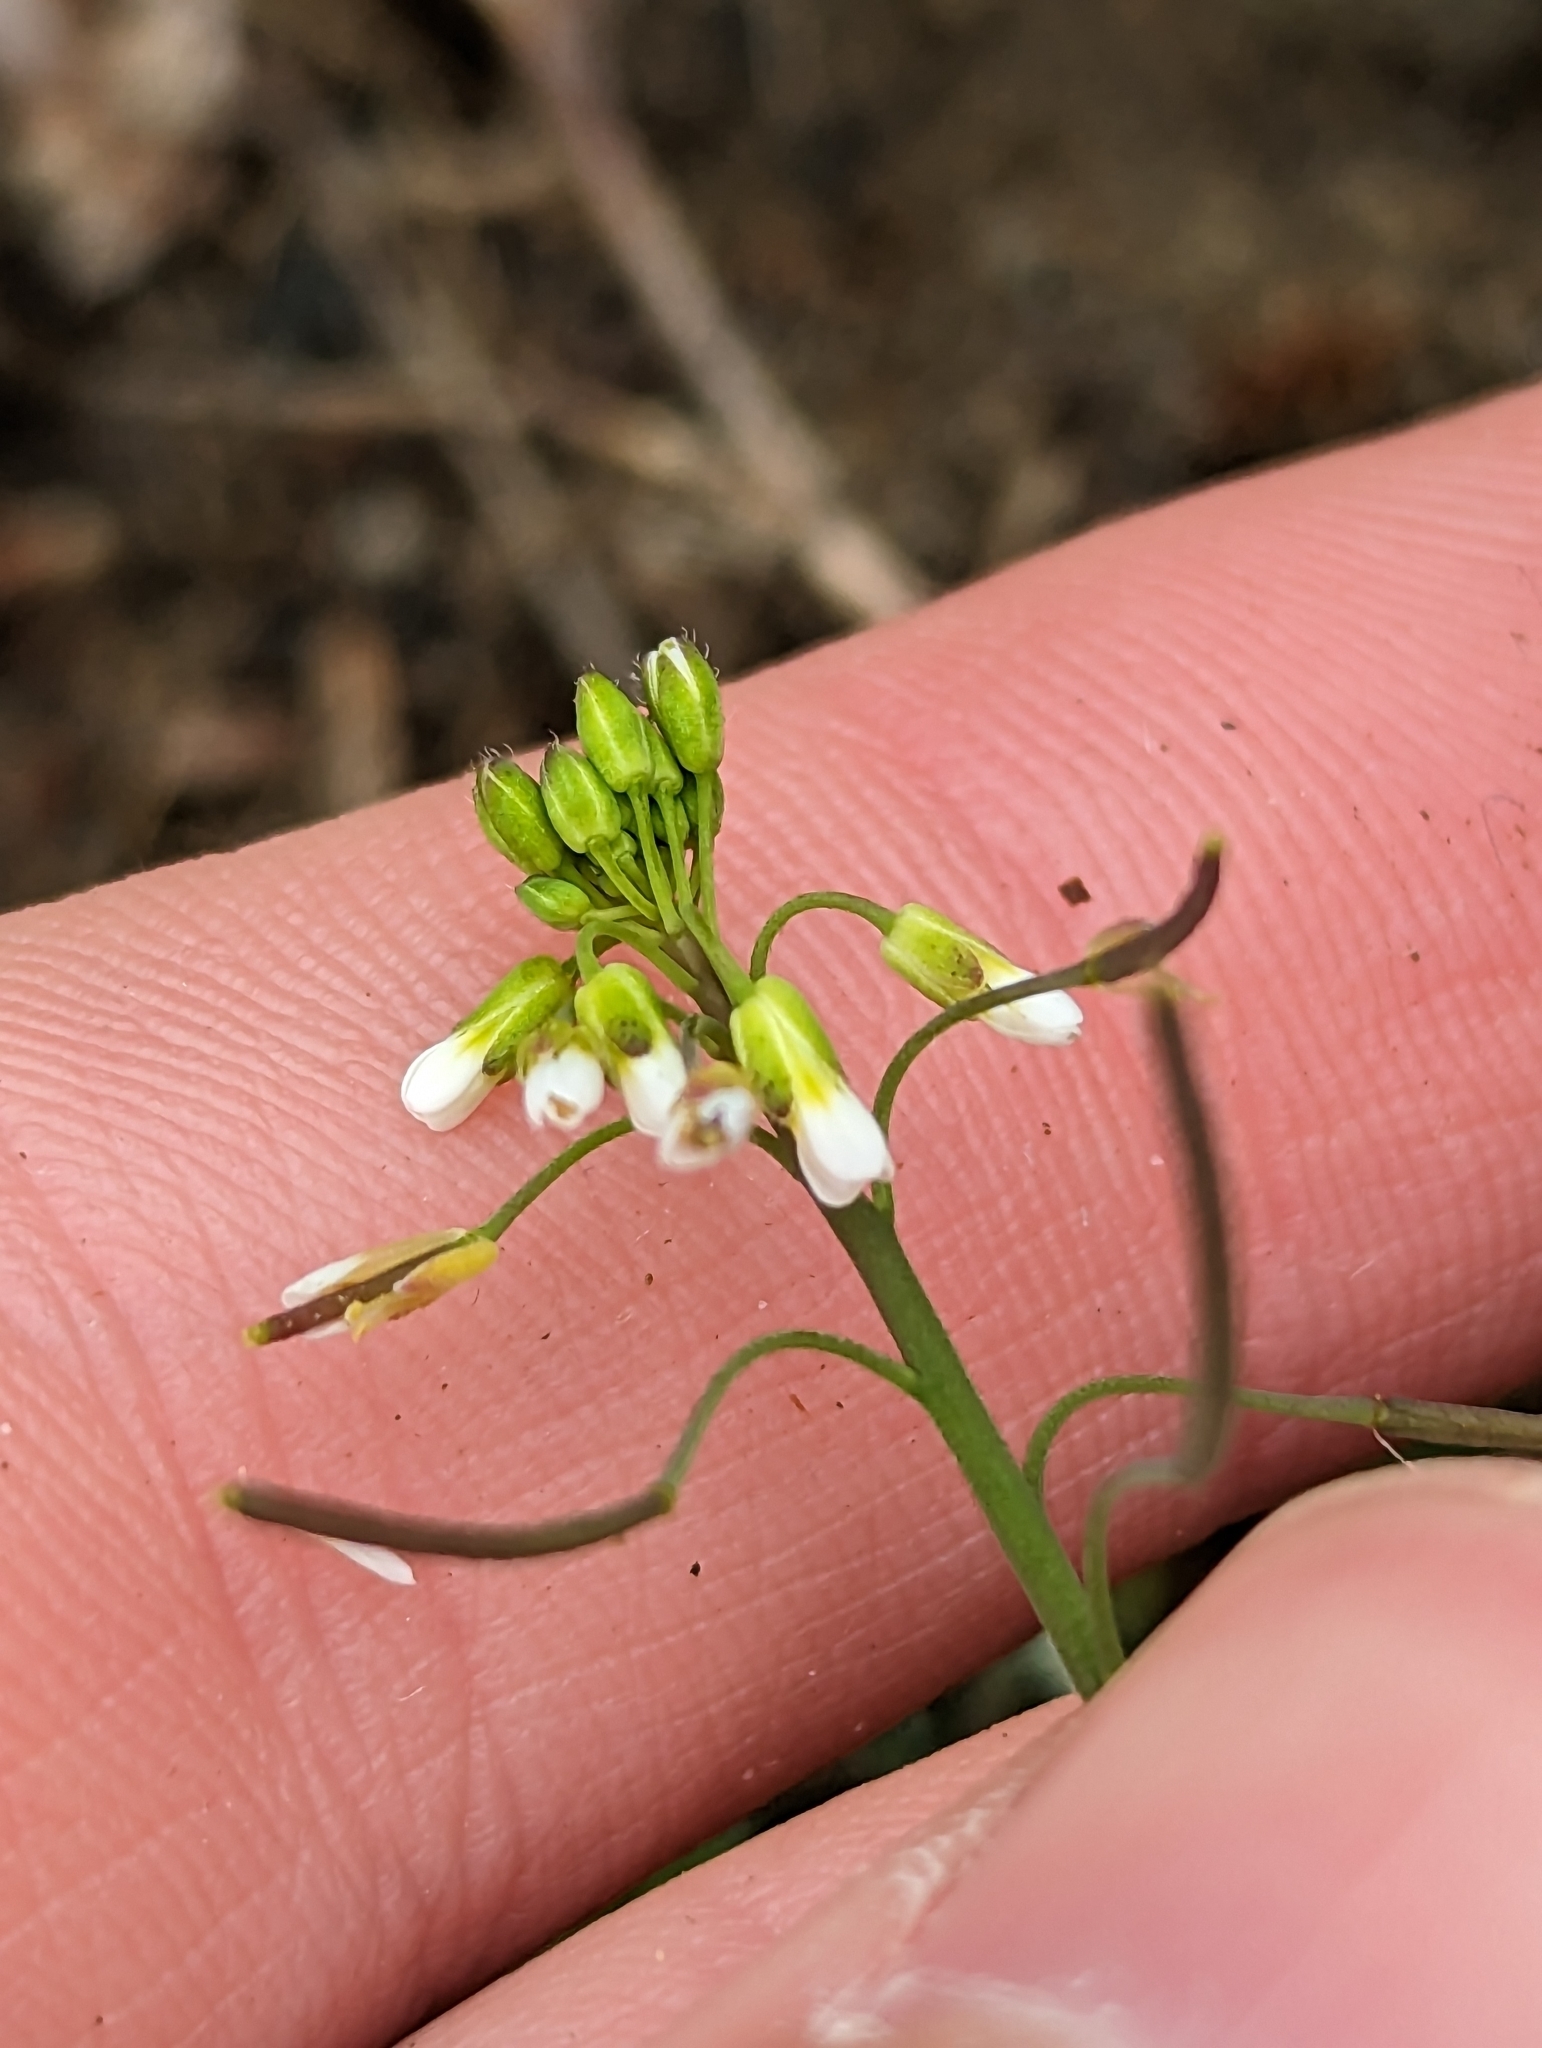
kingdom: Plantae
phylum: Tracheophyta
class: Magnoliopsida
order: Brassicales
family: Brassicaceae
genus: Arabidopsis
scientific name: Arabidopsis thaliana
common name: Thale cress
